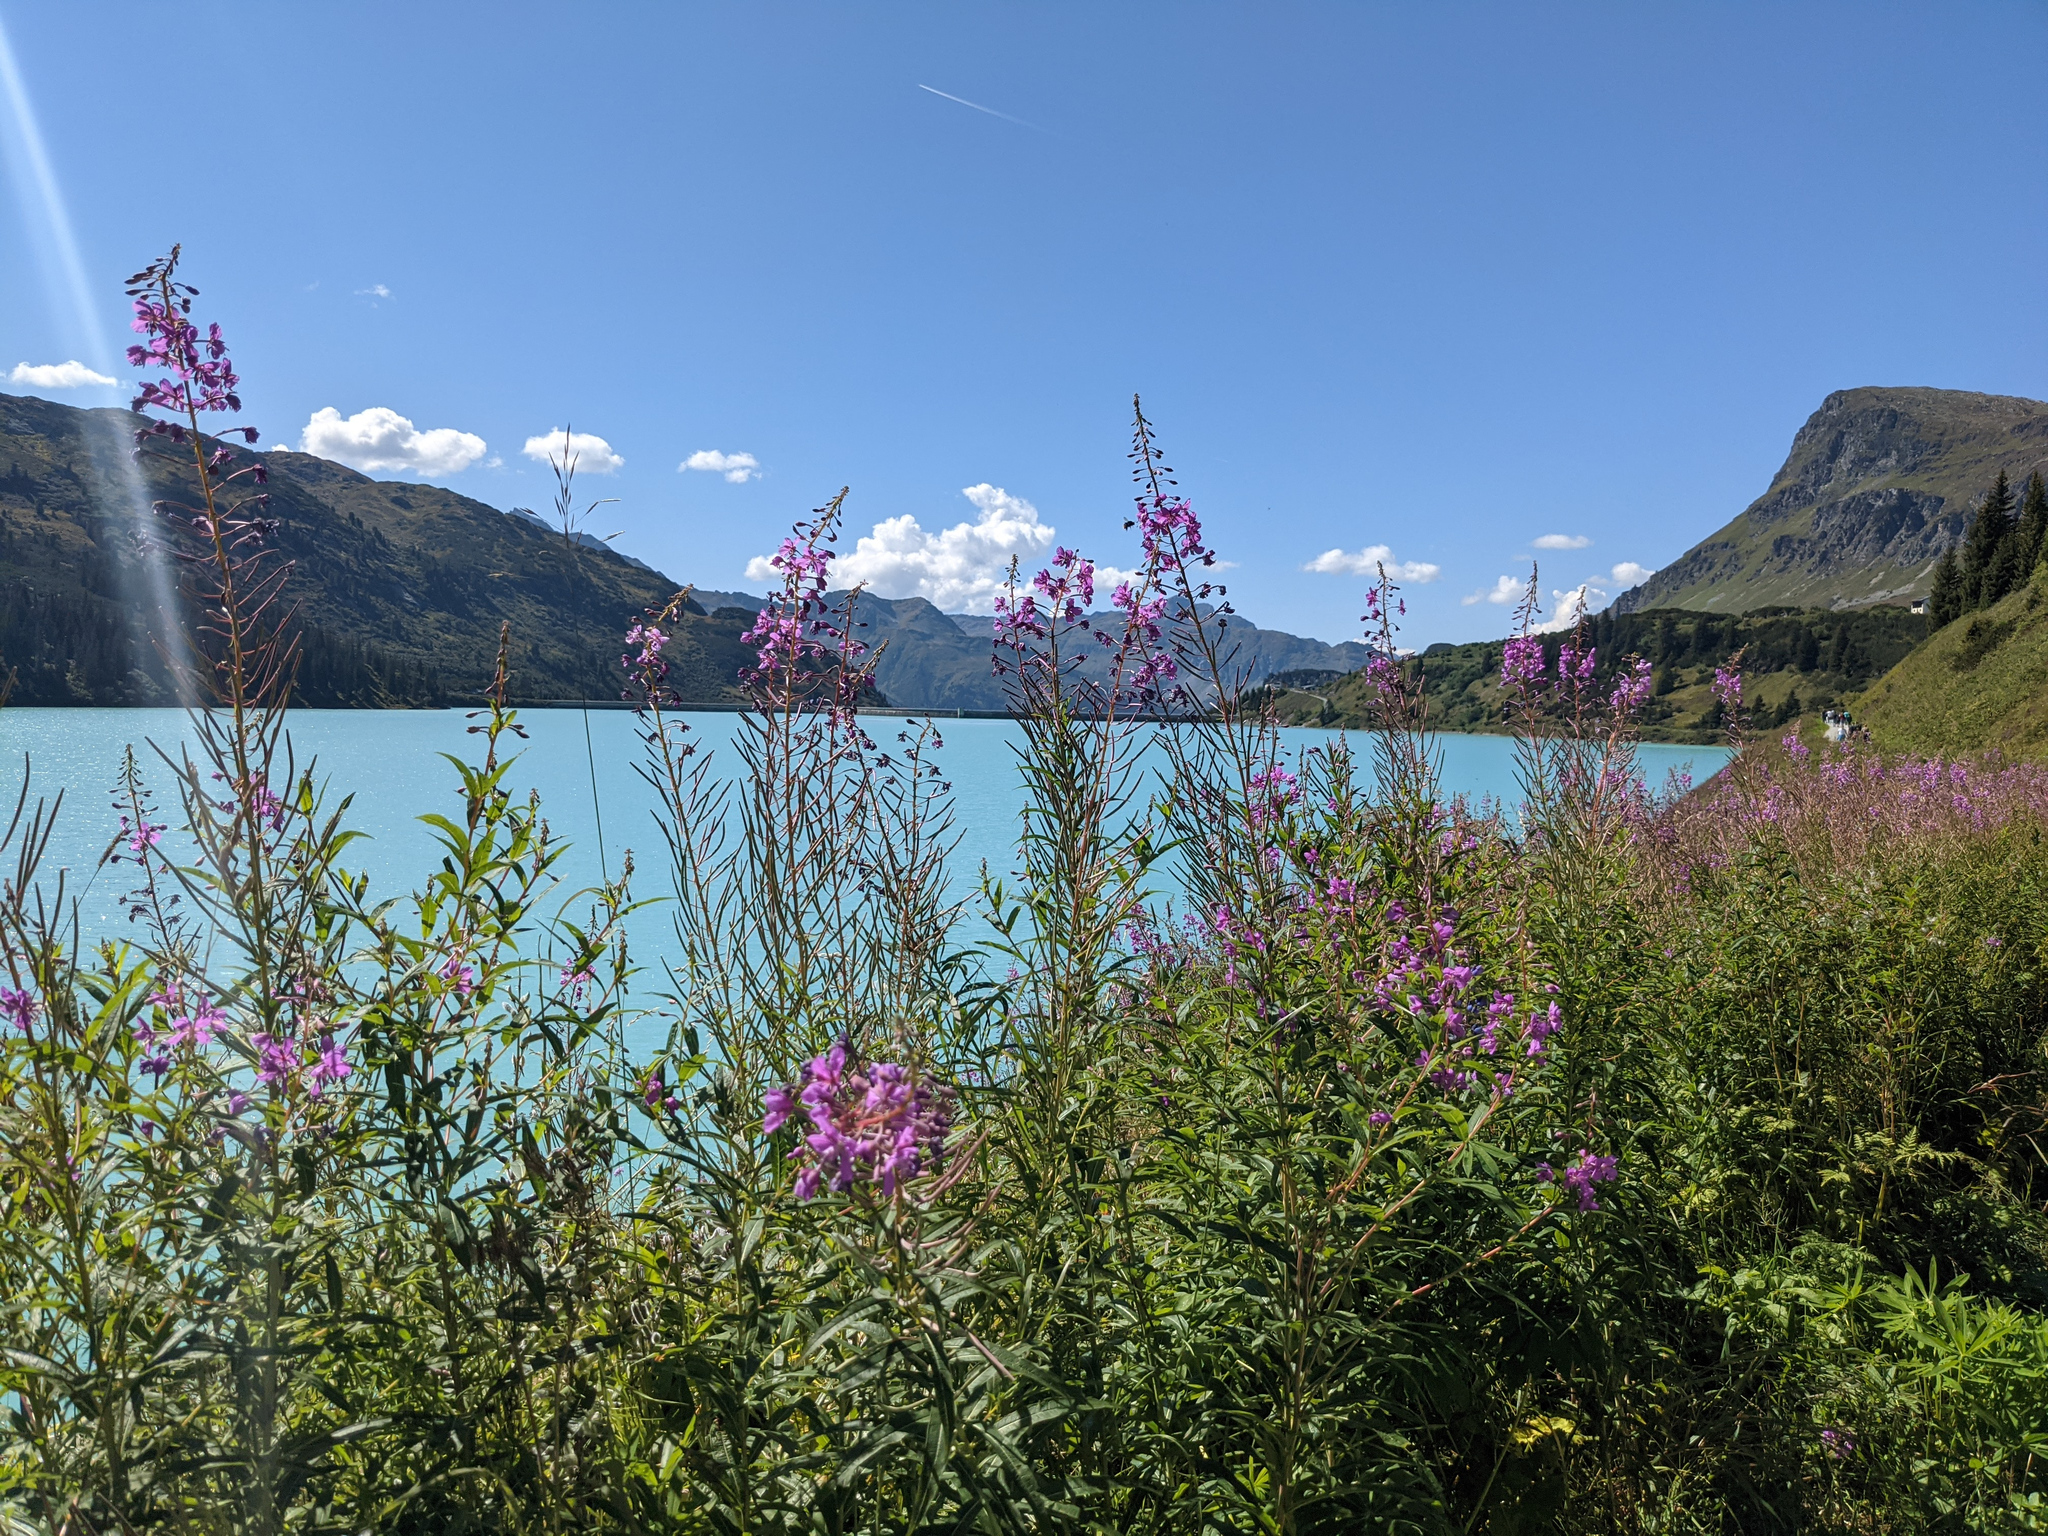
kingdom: Plantae
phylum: Tracheophyta
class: Magnoliopsida
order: Myrtales
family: Onagraceae
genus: Chamaenerion
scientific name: Chamaenerion angustifolium
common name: Fireweed
